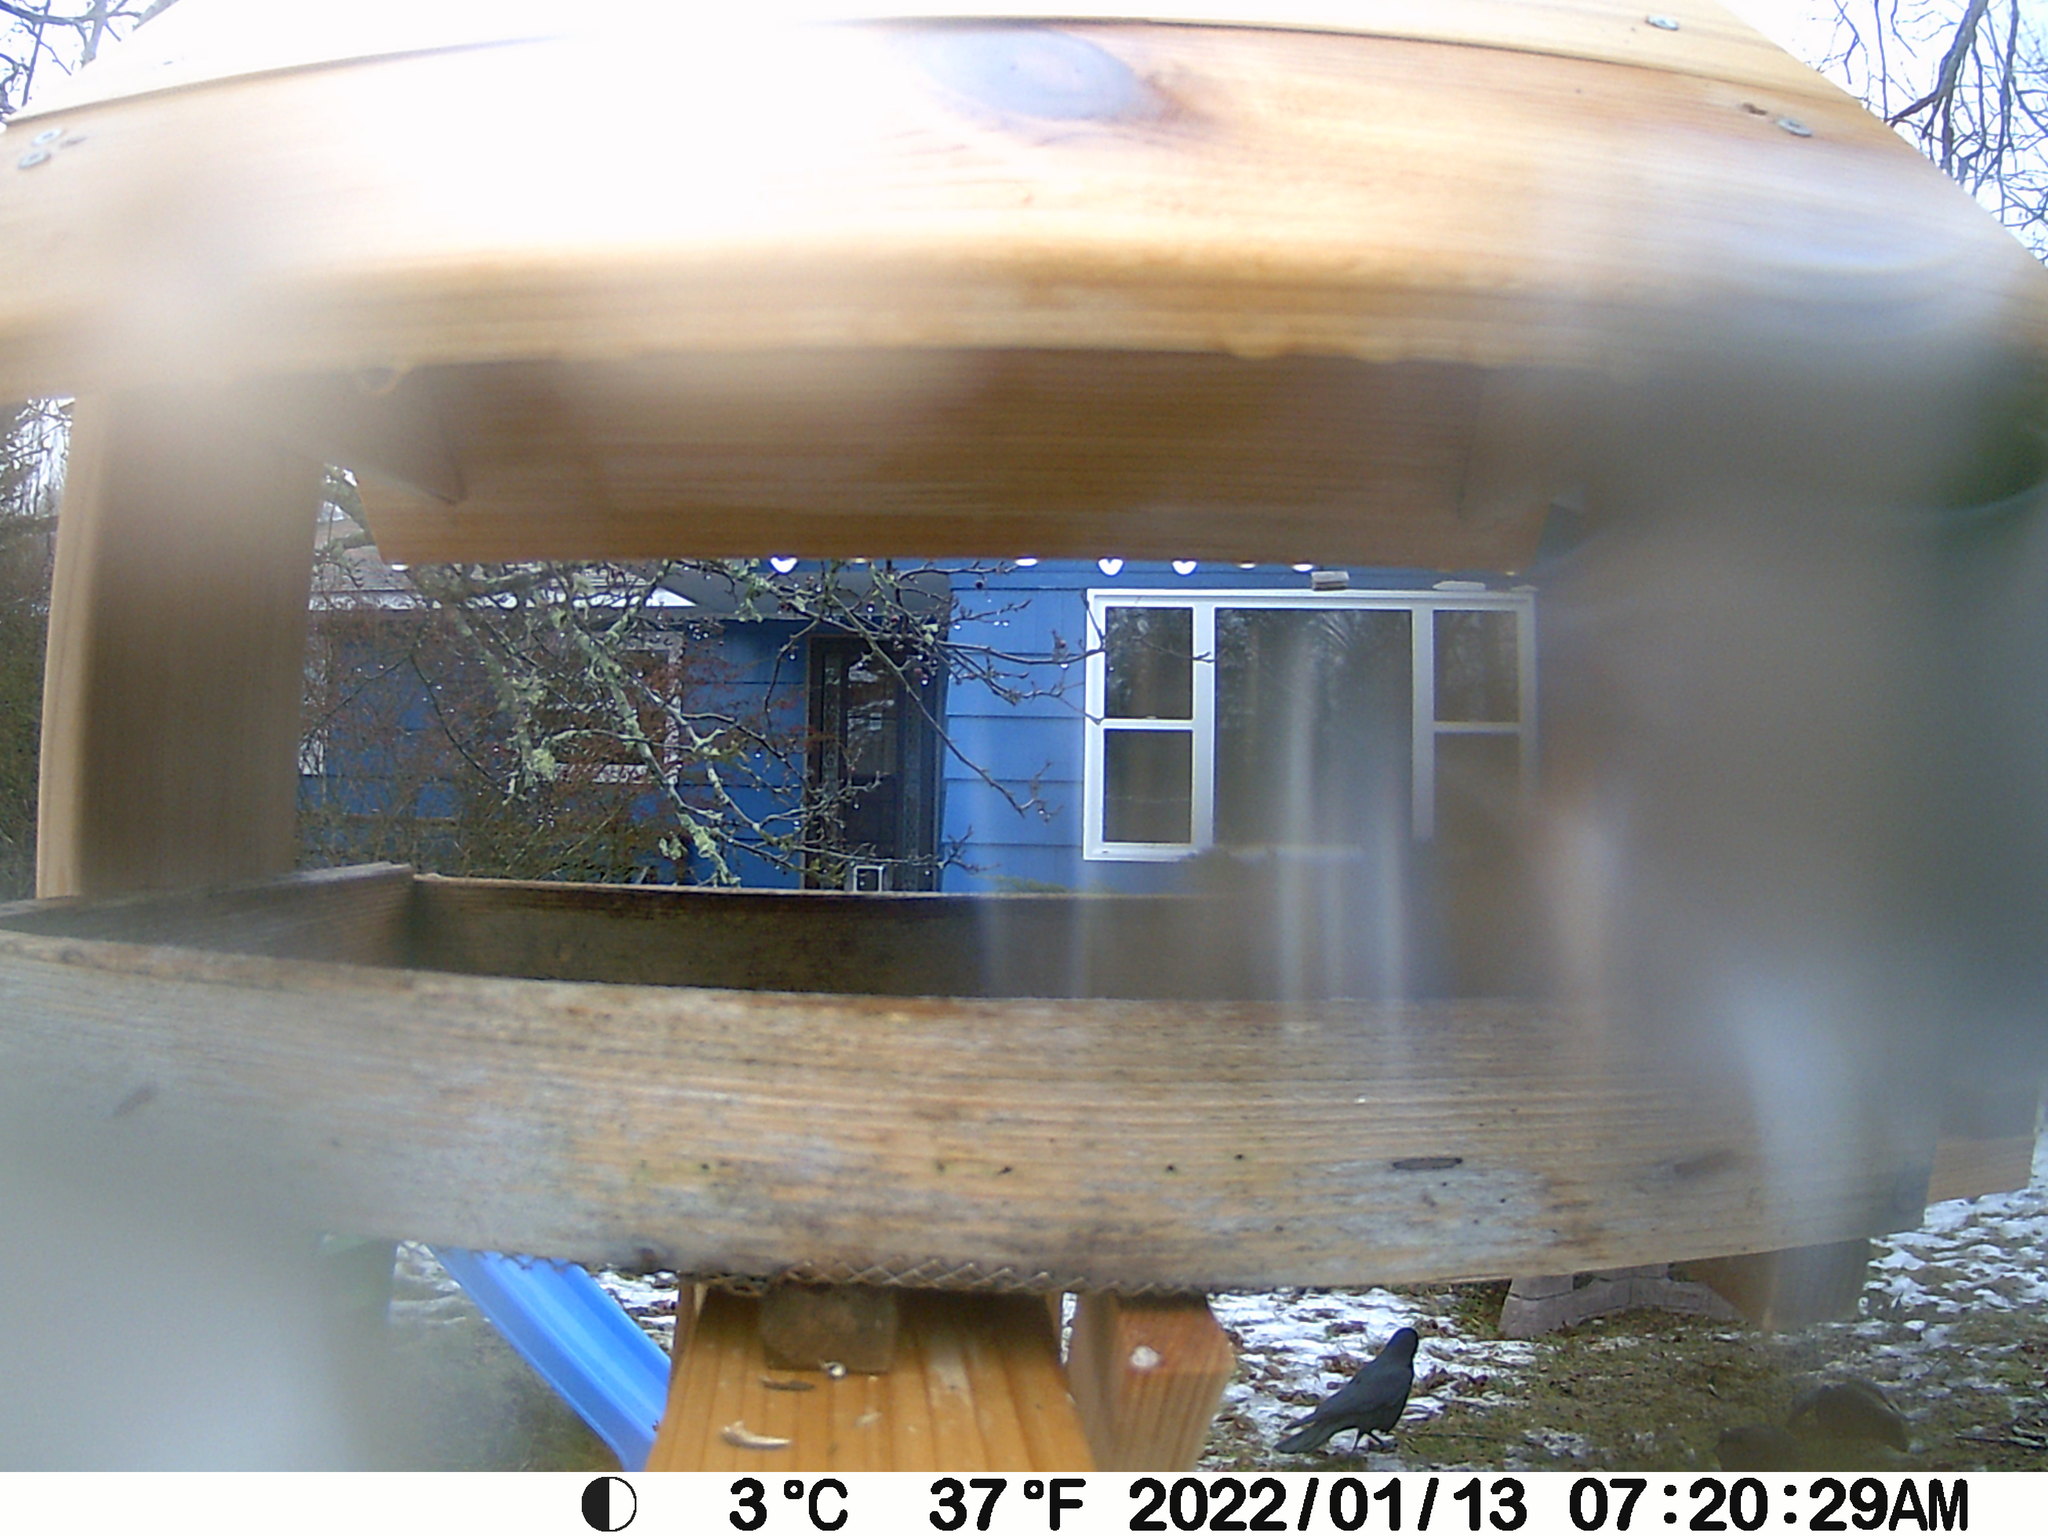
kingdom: Animalia
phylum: Chordata
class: Aves
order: Passeriformes
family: Corvidae
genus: Corvus
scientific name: Corvus brachyrhynchos
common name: American crow
